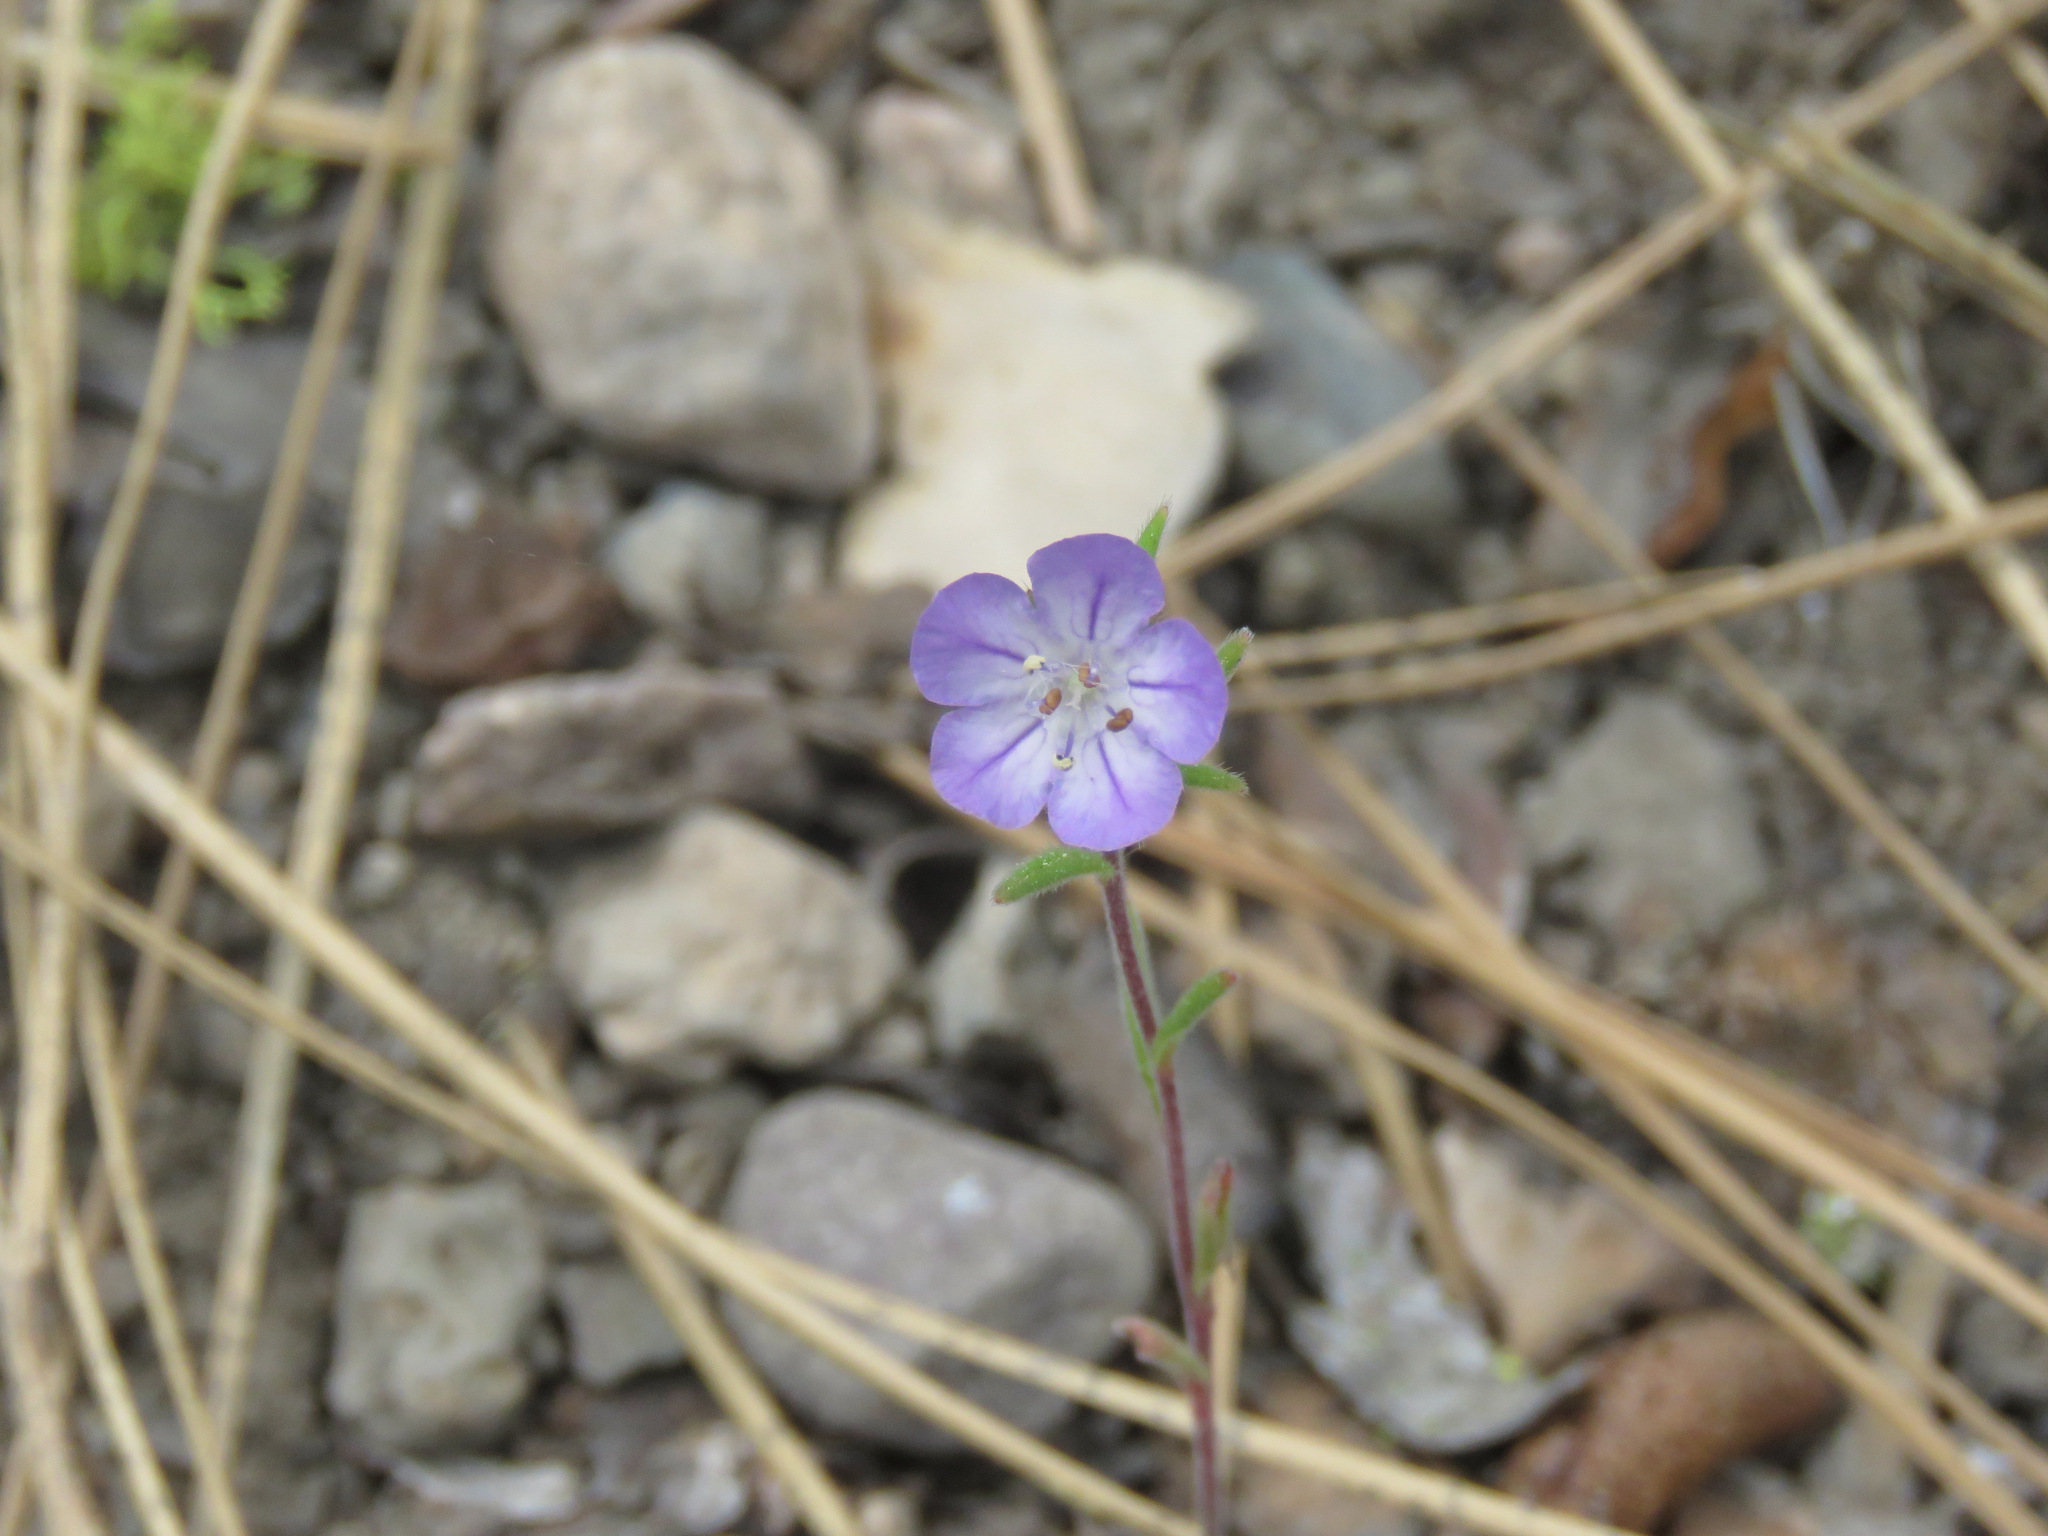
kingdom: Plantae
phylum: Tracheophyta
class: Magnoliopsida
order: Boraginales
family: Hydrophyllaceae
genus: Phacelia
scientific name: Phacelia linearis
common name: Linear-leaved phacelia
